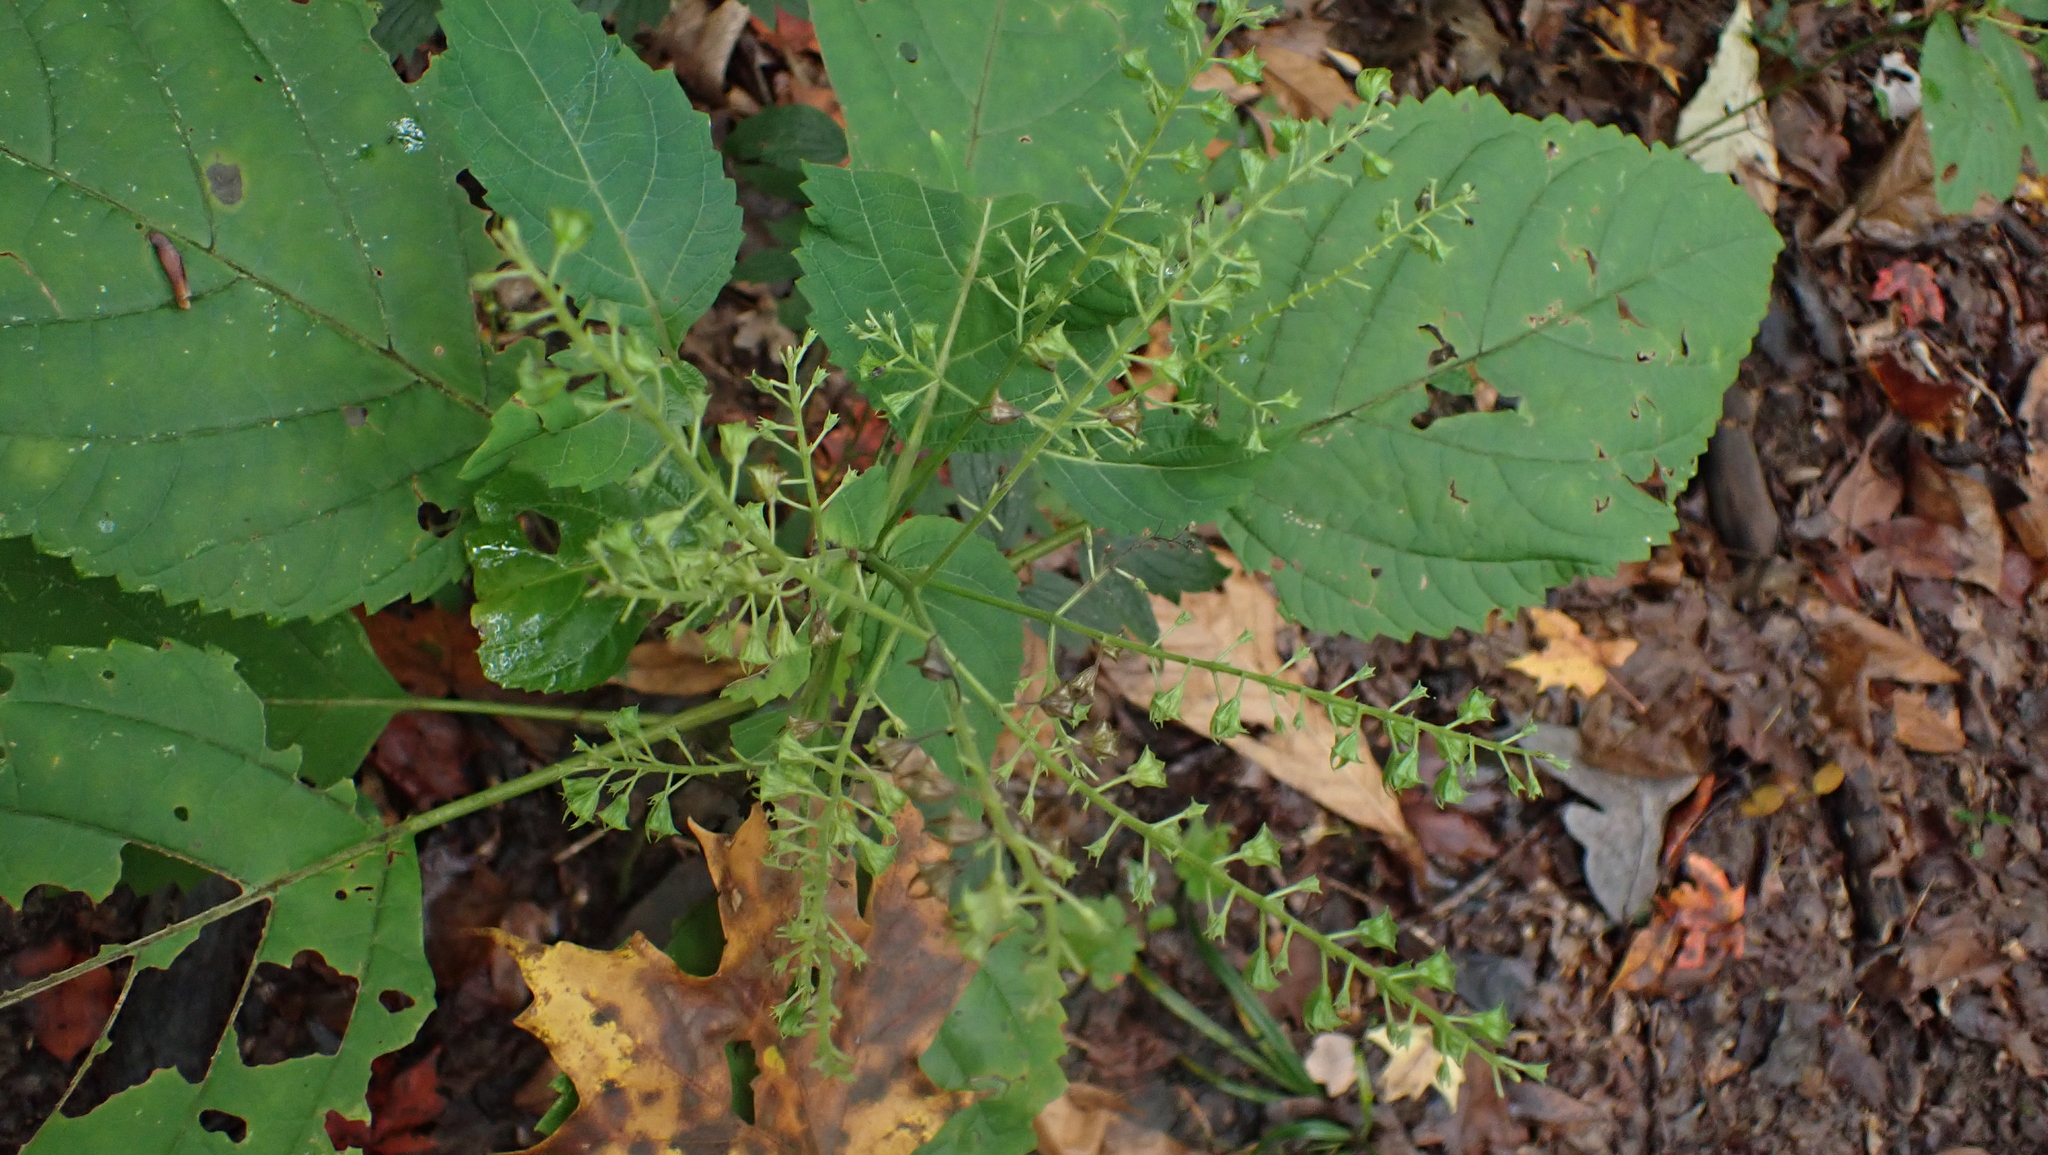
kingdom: Plantae
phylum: Tracheophyta
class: Magnoliopsida
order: Lamiales
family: Lamiaceae
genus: Collinsonia
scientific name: Collinsonia canadensis
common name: Northern horsebalm
